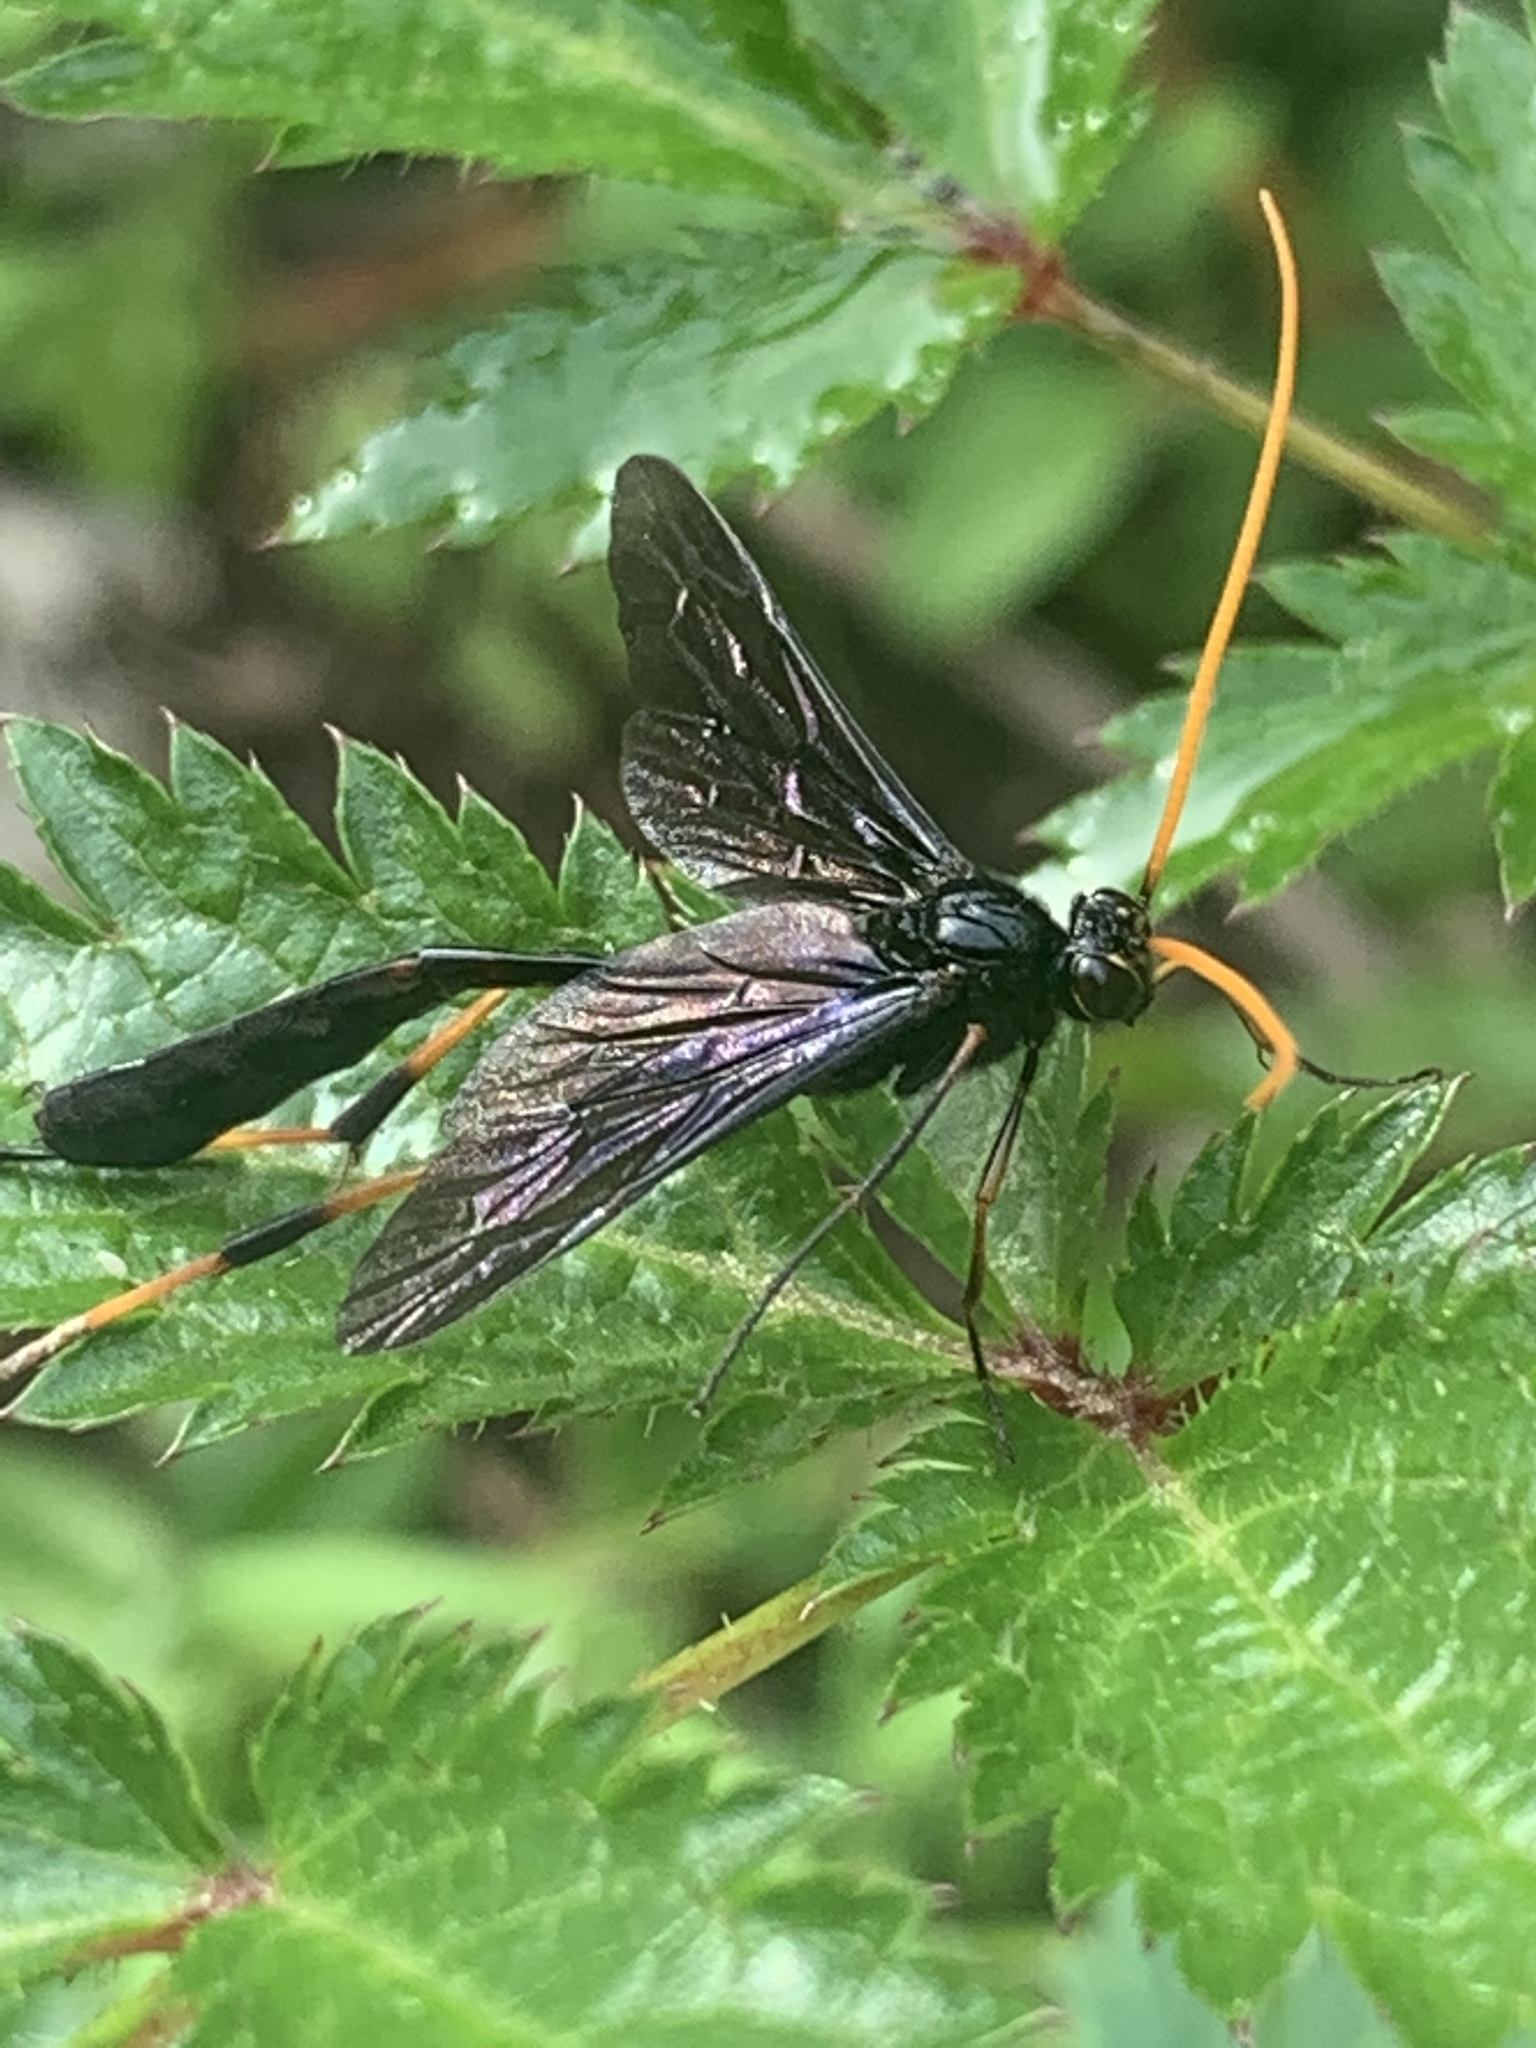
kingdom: Animalia
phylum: Arthropoda
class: Insecta
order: Hymenoptera
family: Ichneumonidae
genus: Therion
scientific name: Therion morio
